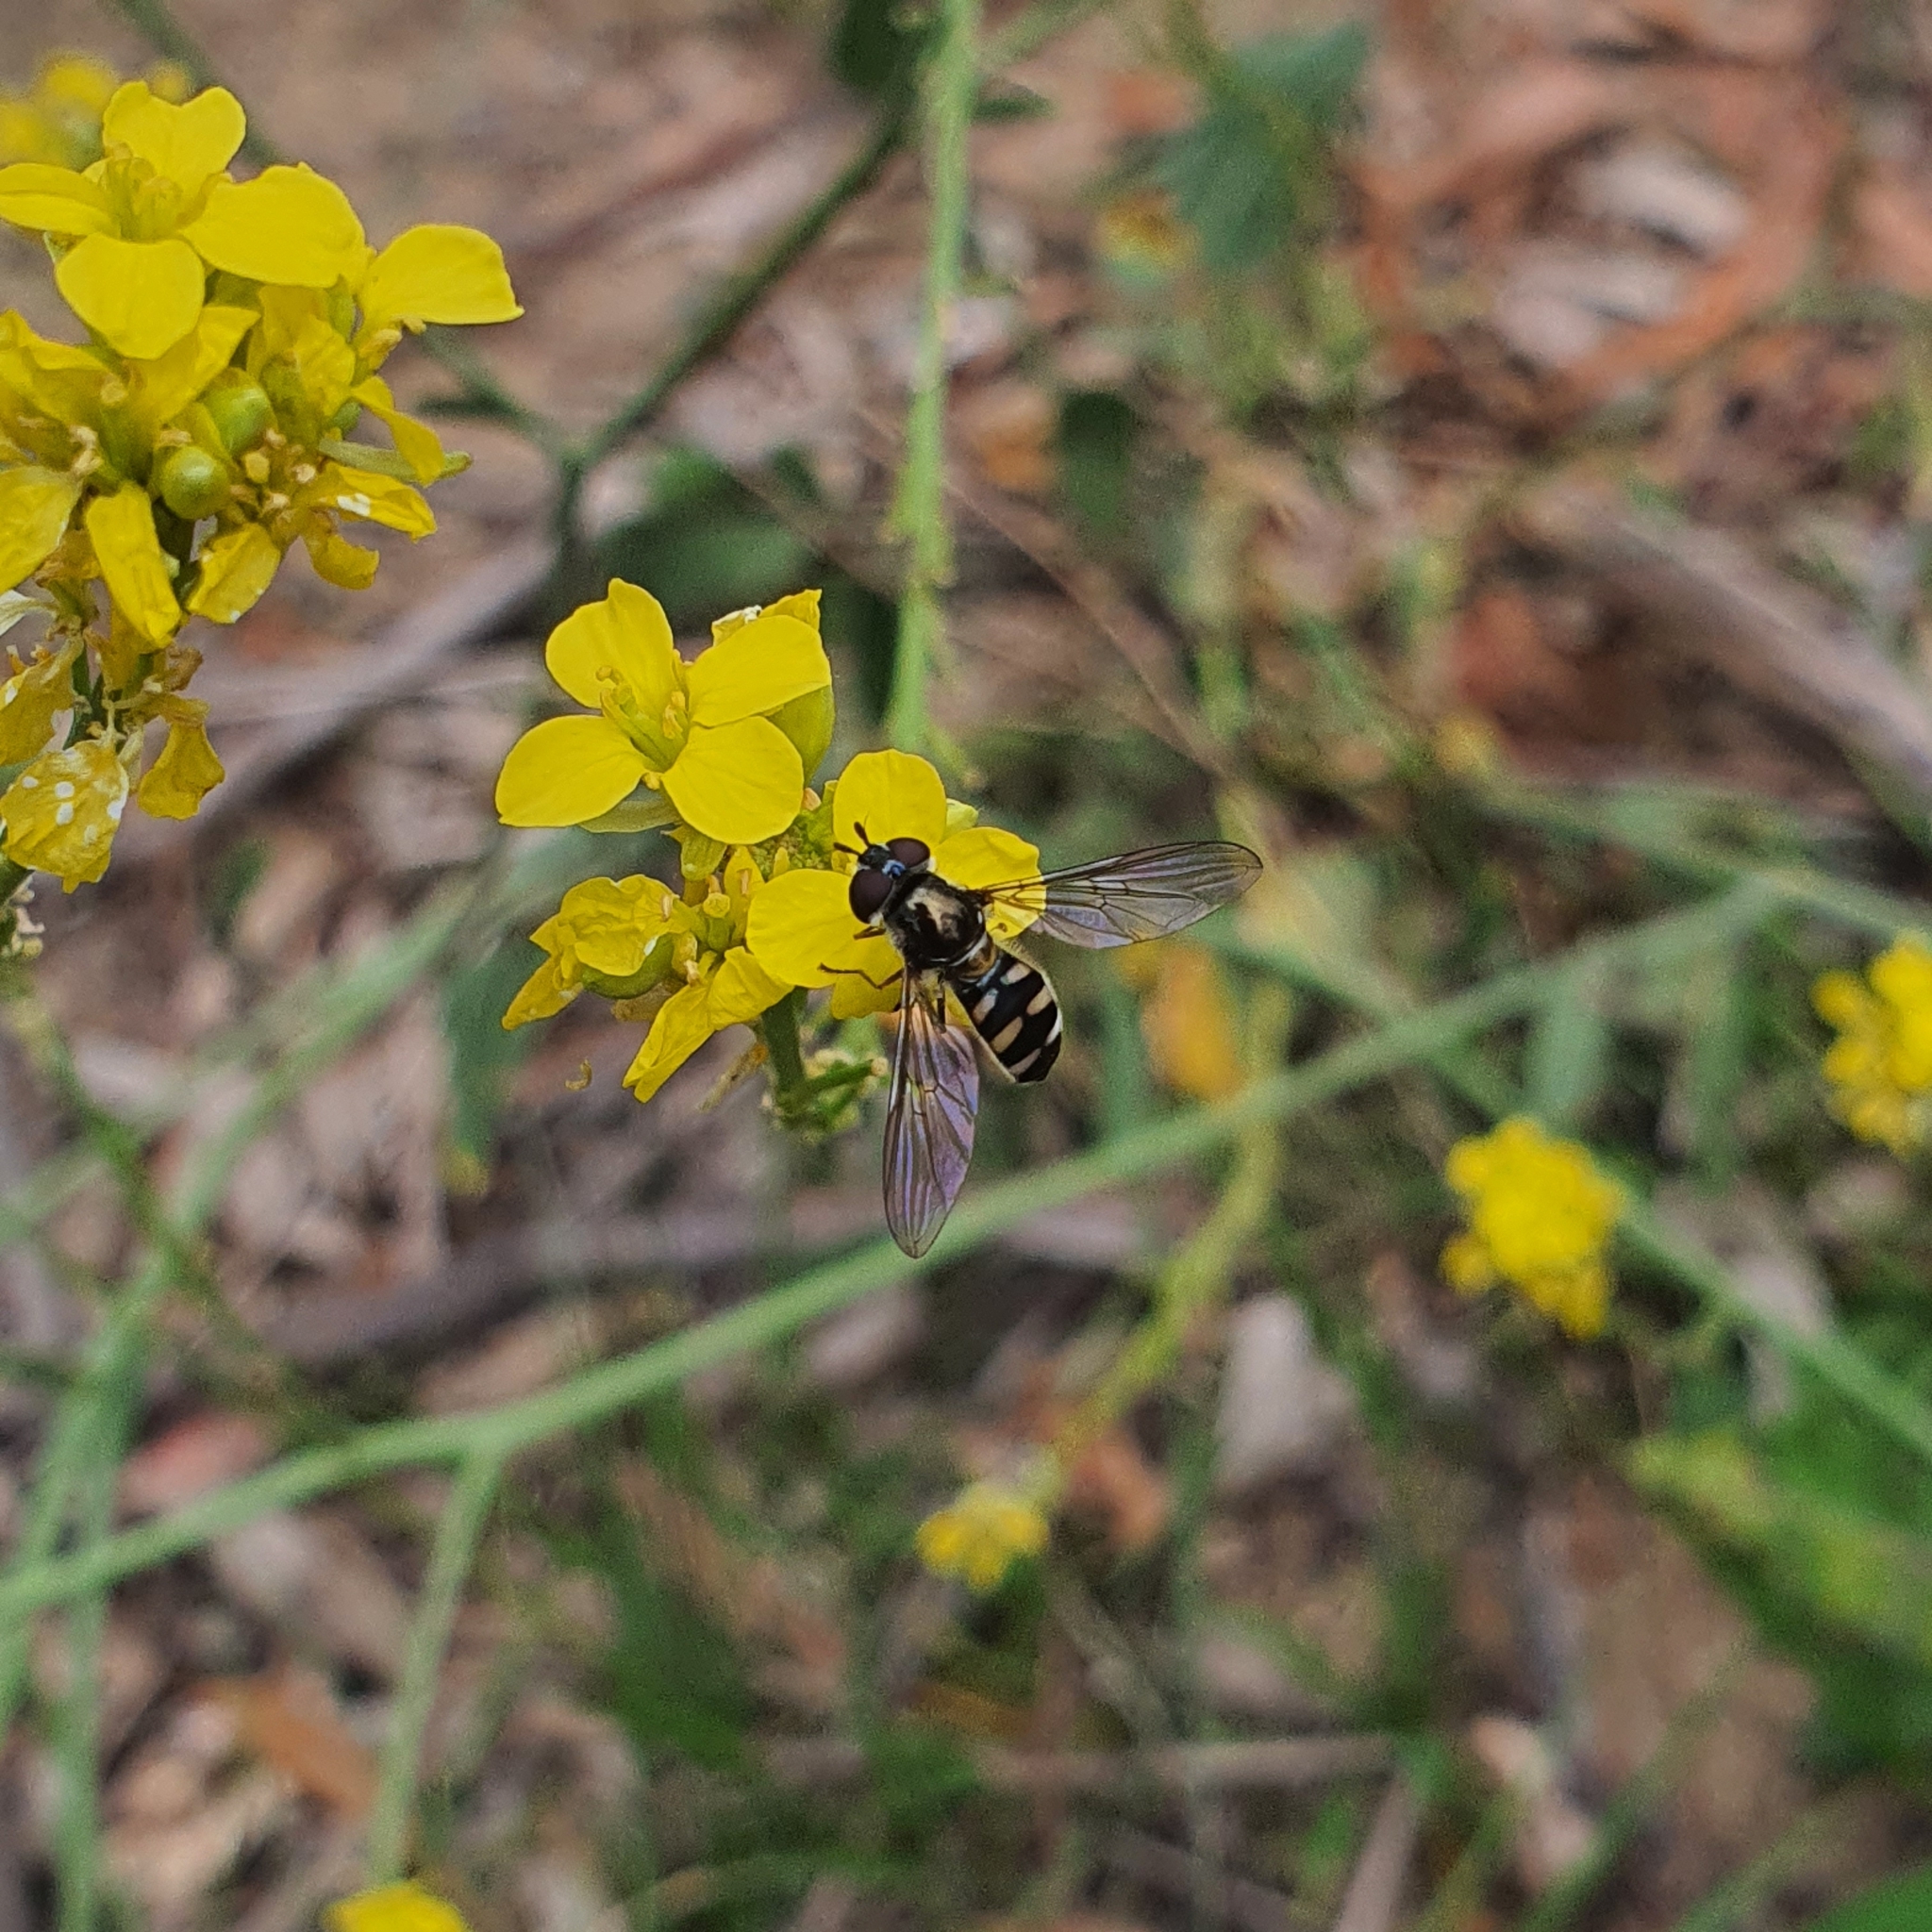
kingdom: Animalia
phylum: Arthropoda
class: Insecta
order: Diptera
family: Syrphidae
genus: Melangyna
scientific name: Melangyna viridiceps
